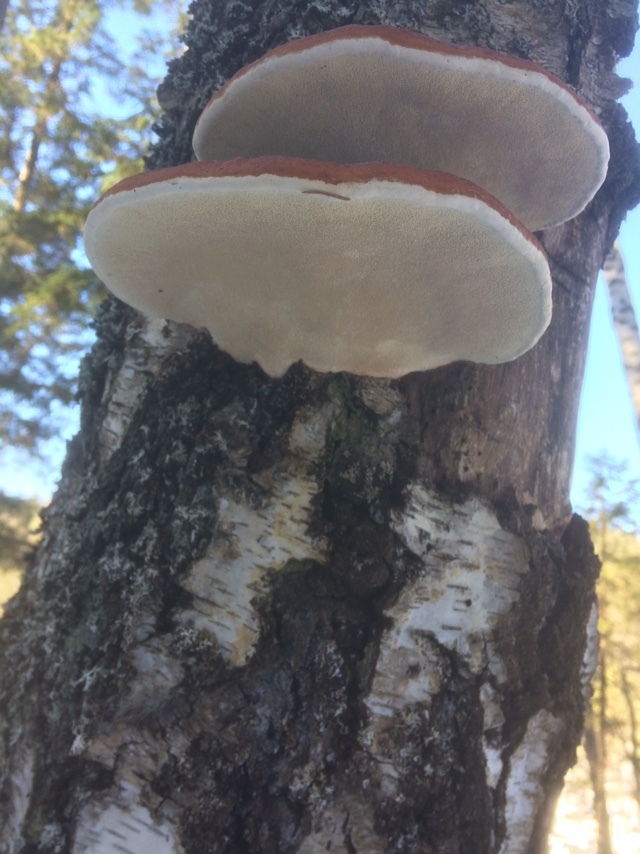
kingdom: Fungi
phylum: Basidiomycota
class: Agaricomycetes
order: Polyporales
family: Fomitopsidaceae
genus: Fomitopsis
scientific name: Fomitopsis pinicola
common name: Red-belted bracket
